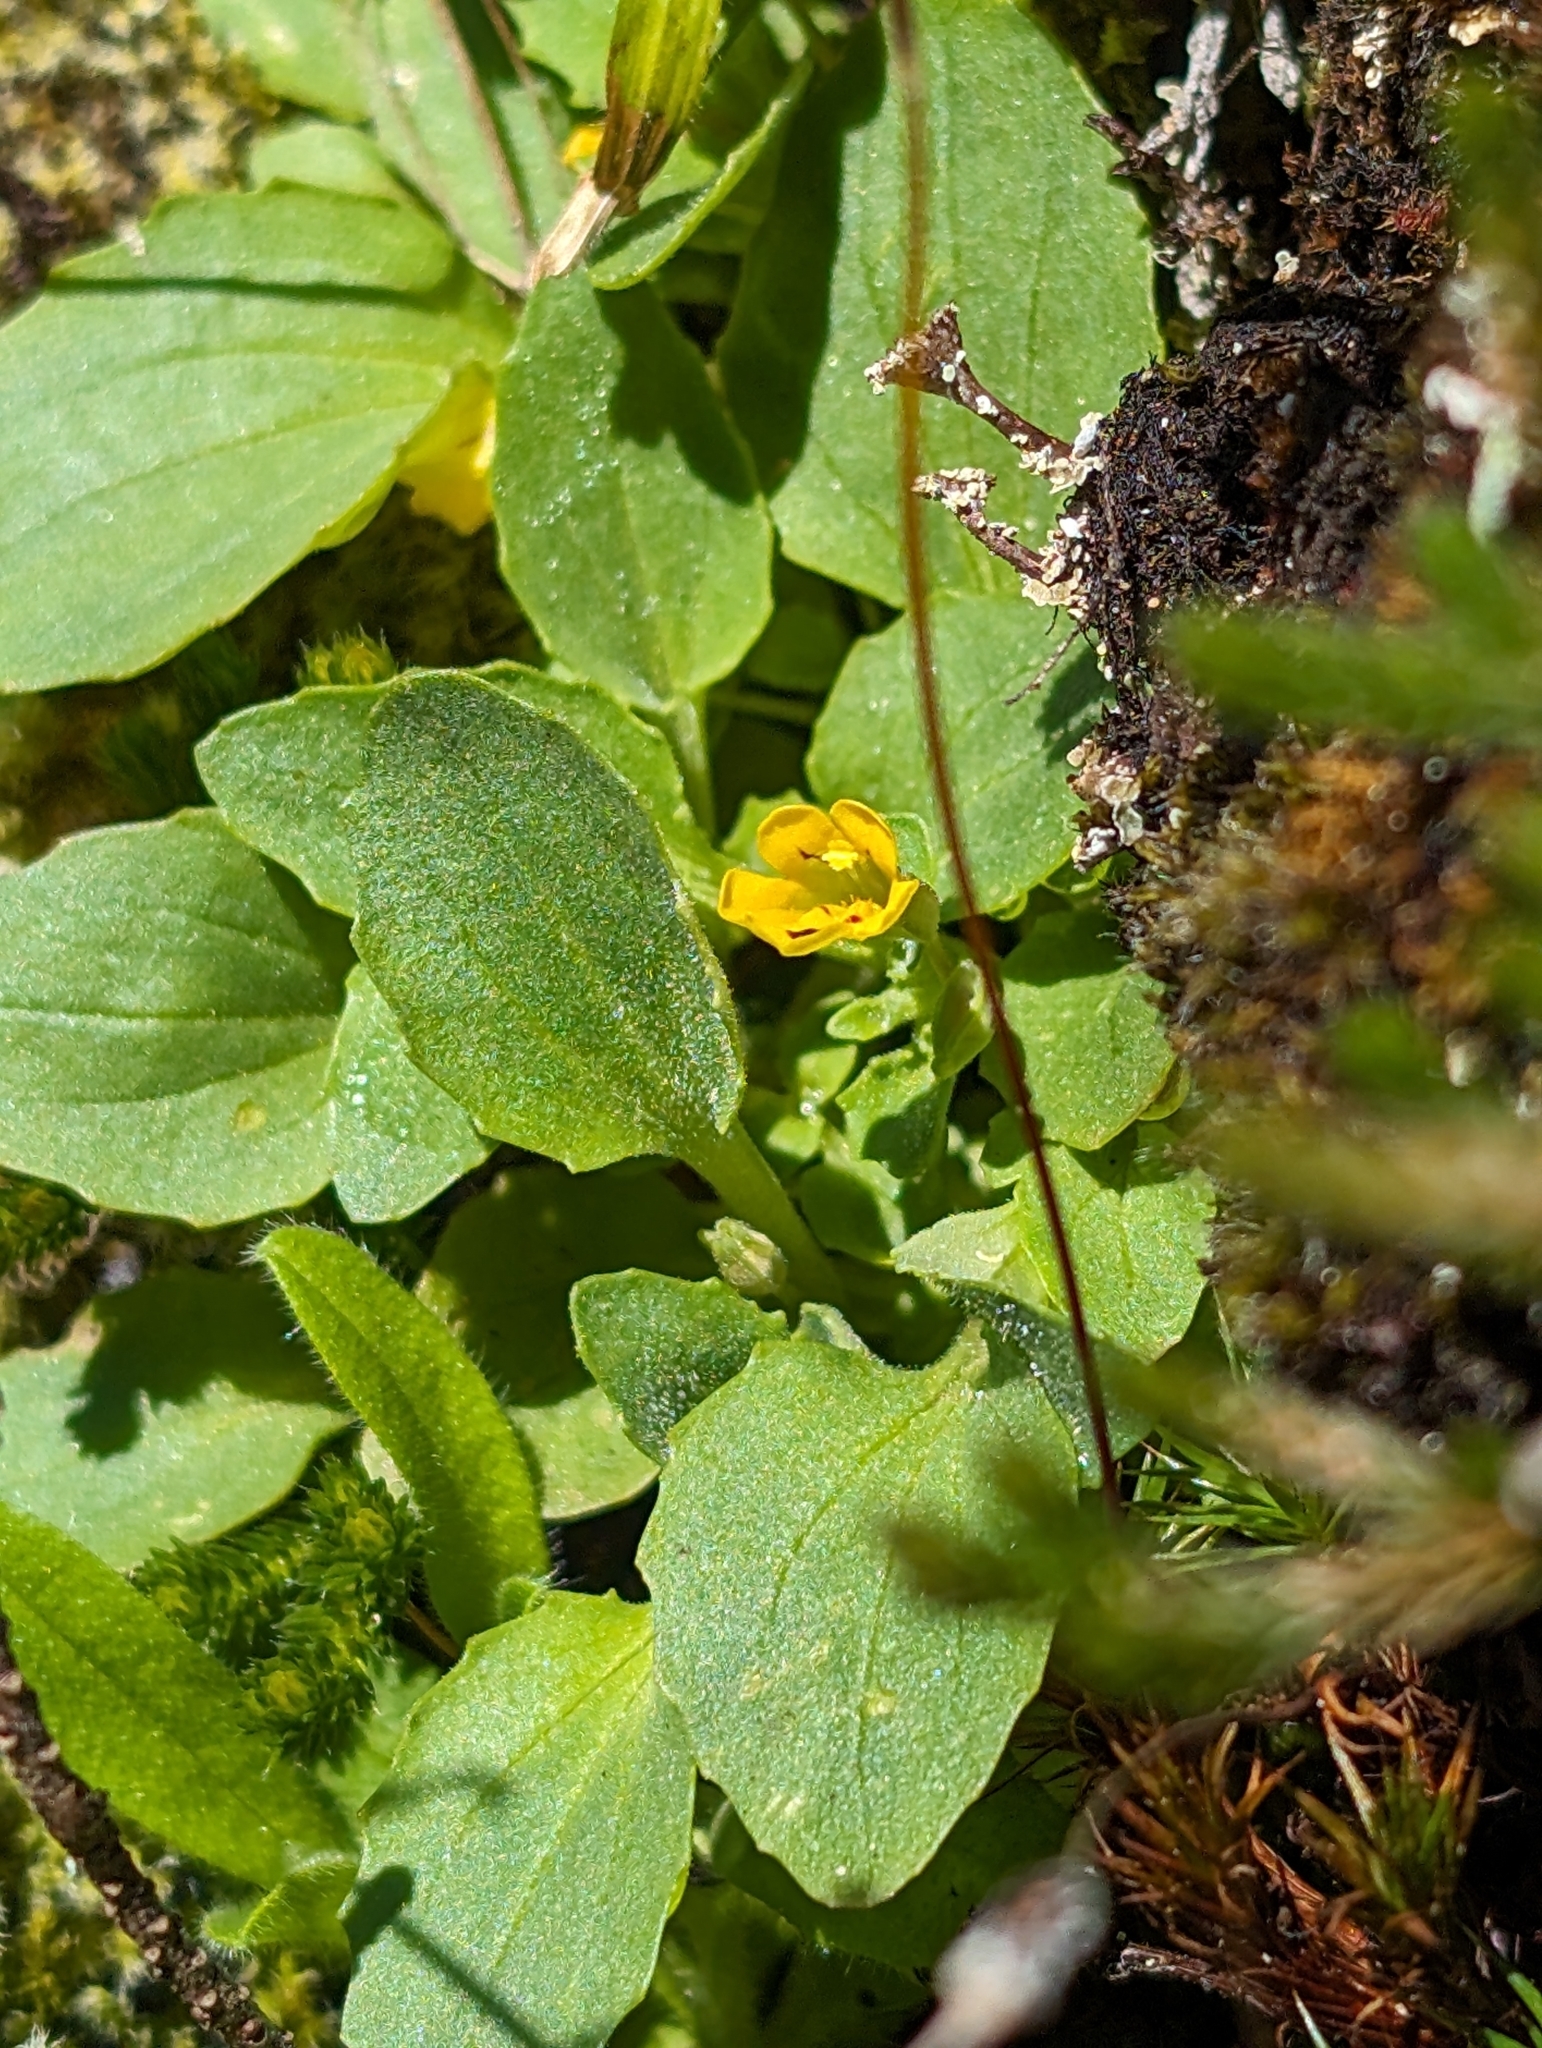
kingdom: Plantae
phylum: Tracheophyta
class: Magnoliopsida
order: Lamiales
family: Phrymaceae
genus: Erythranthe
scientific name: Erythranthe alsinoides
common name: Chickweed monkeyflower
